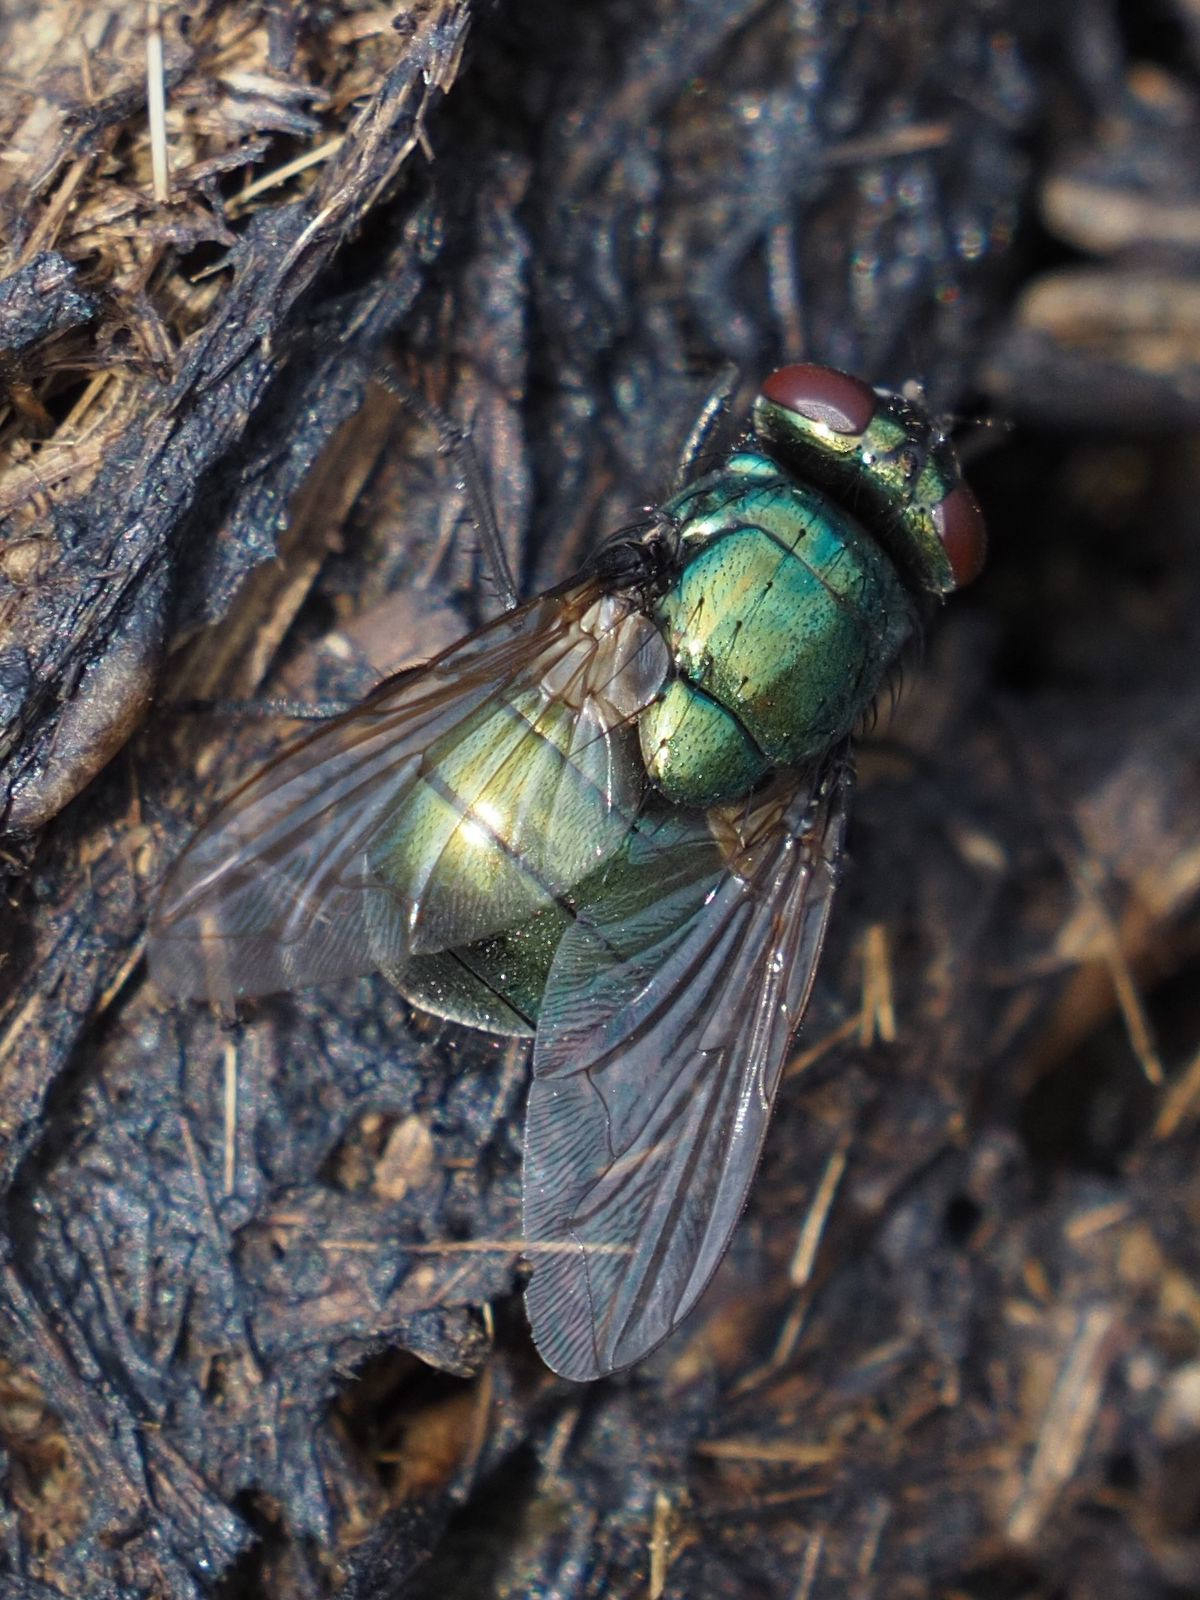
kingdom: Animalia
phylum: Arthropoda
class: Insecta
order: Diptera
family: Muscidae
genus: Neomyia
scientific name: Neomyia cornicina
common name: House fly
